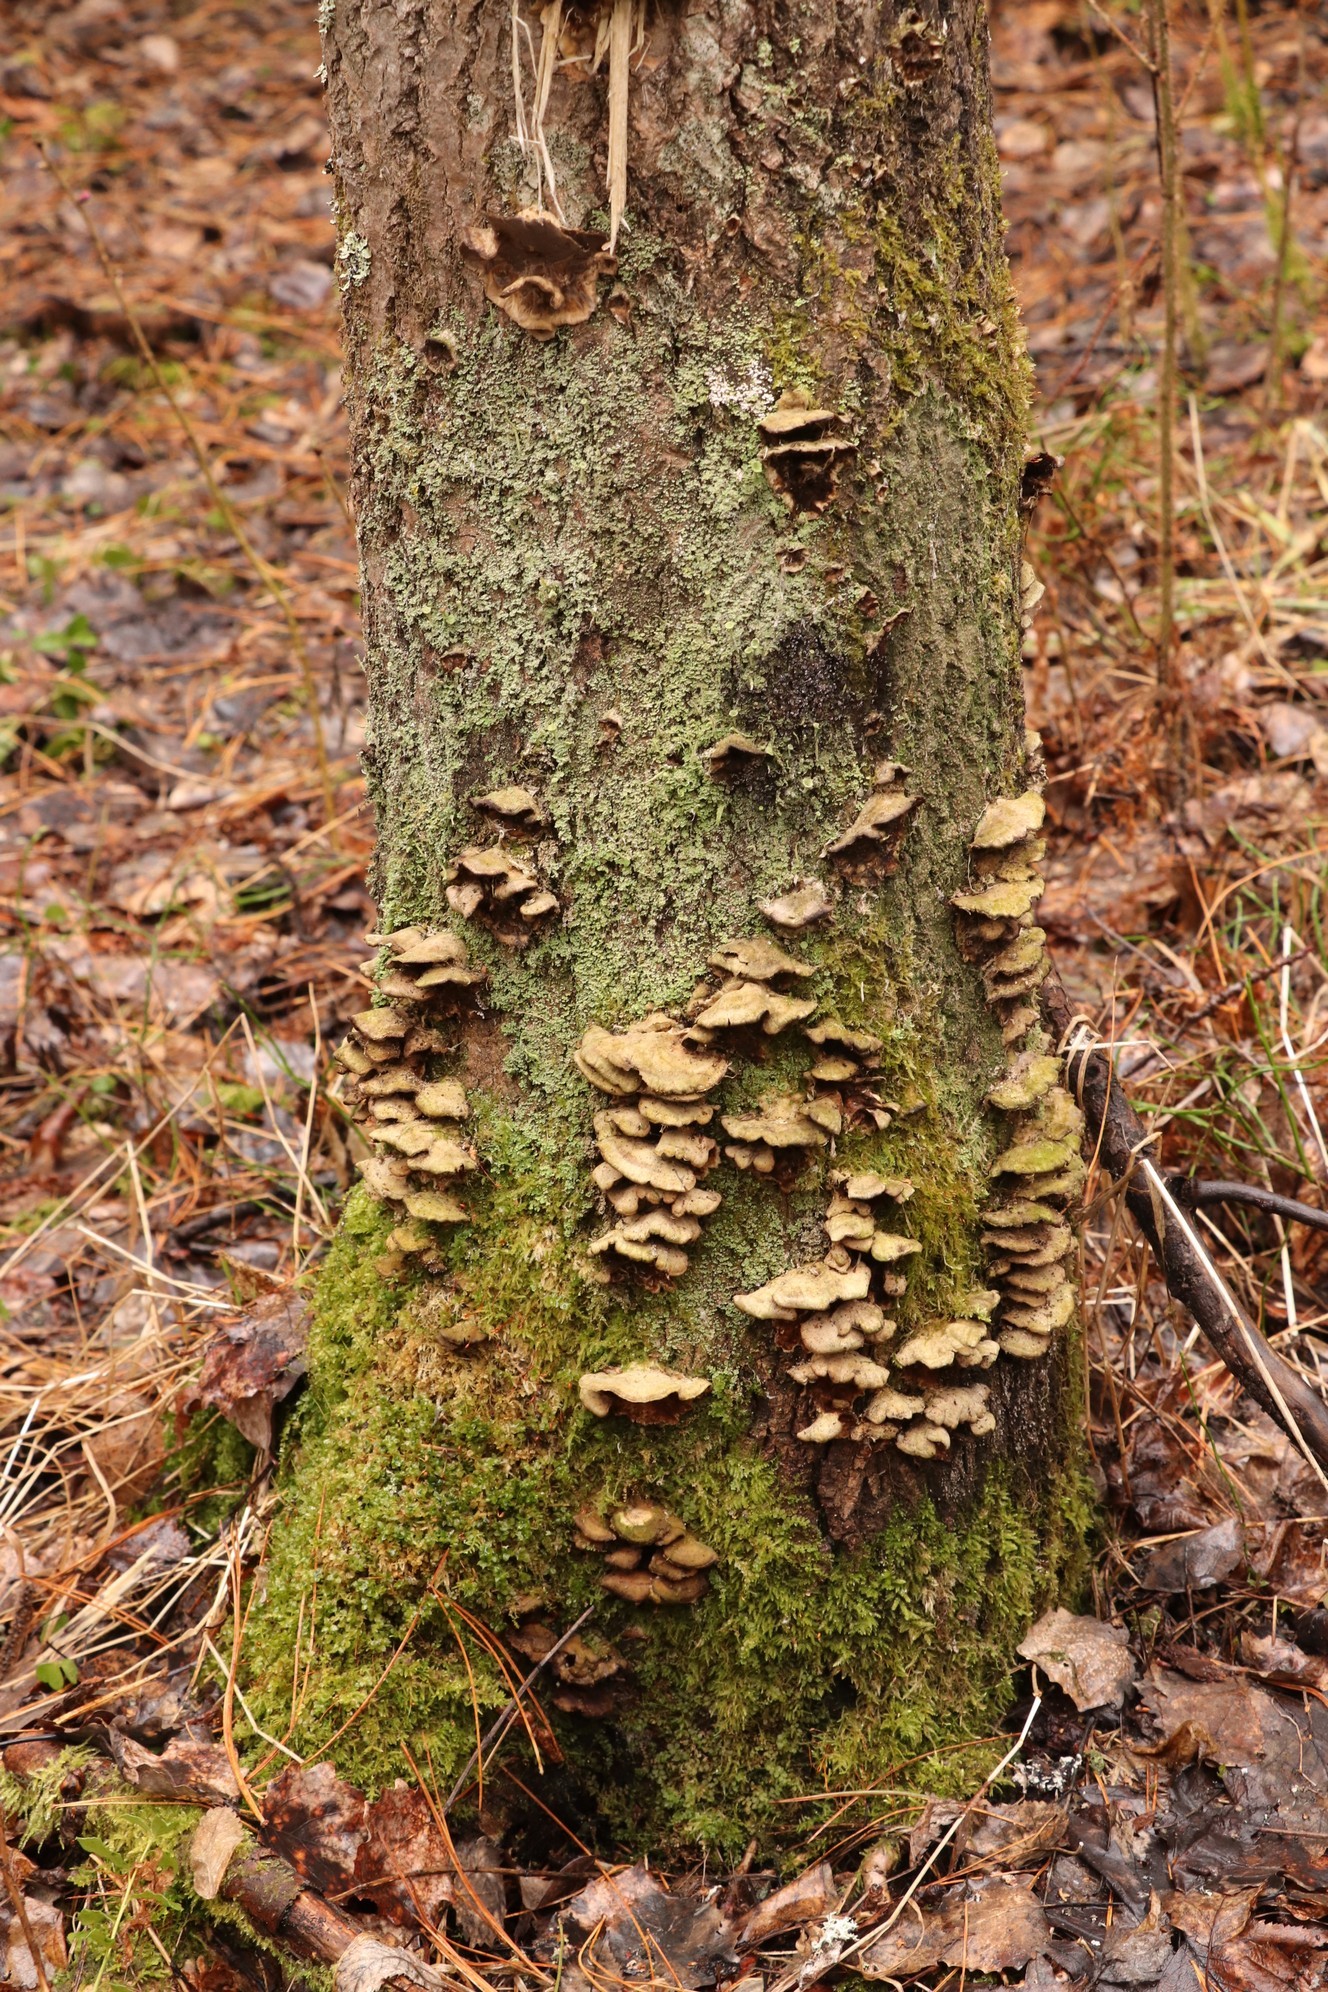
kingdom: Fungi
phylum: Basidiomycota
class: Agaricomycetes
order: Polyporales
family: Phanerochaetaceae
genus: Bjerkandera
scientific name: Bjerkandera adusta
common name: Smoky bracket
